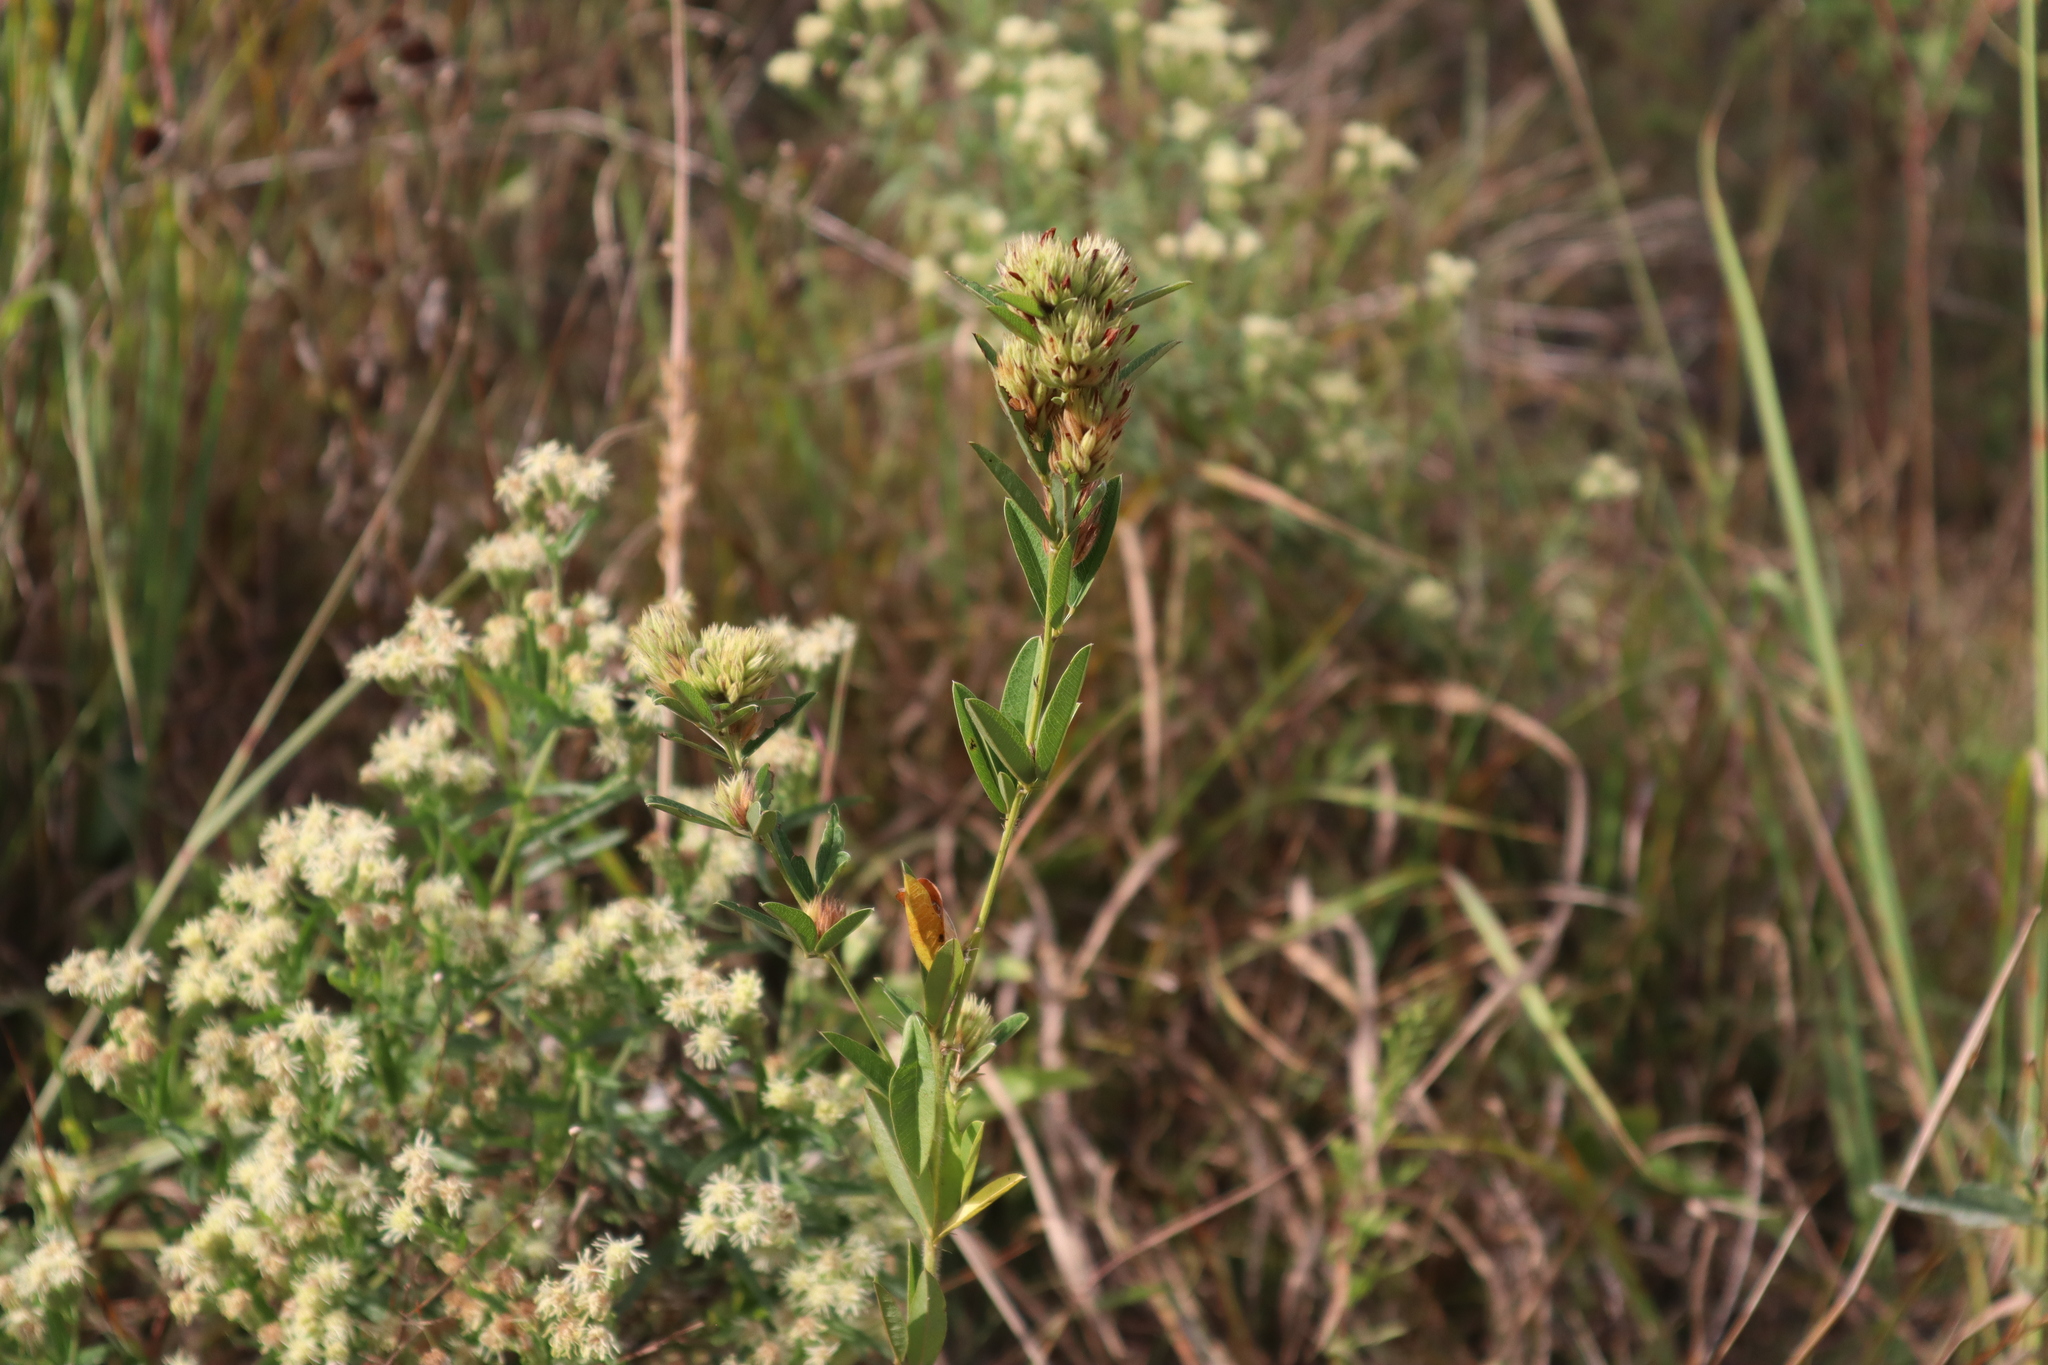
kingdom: Plantae
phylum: Tracheophyta
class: Magnoliopsida
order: Fabales
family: Fabaceae
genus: Lespedeza
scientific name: Lespedeza capitata
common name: Dusty clover
